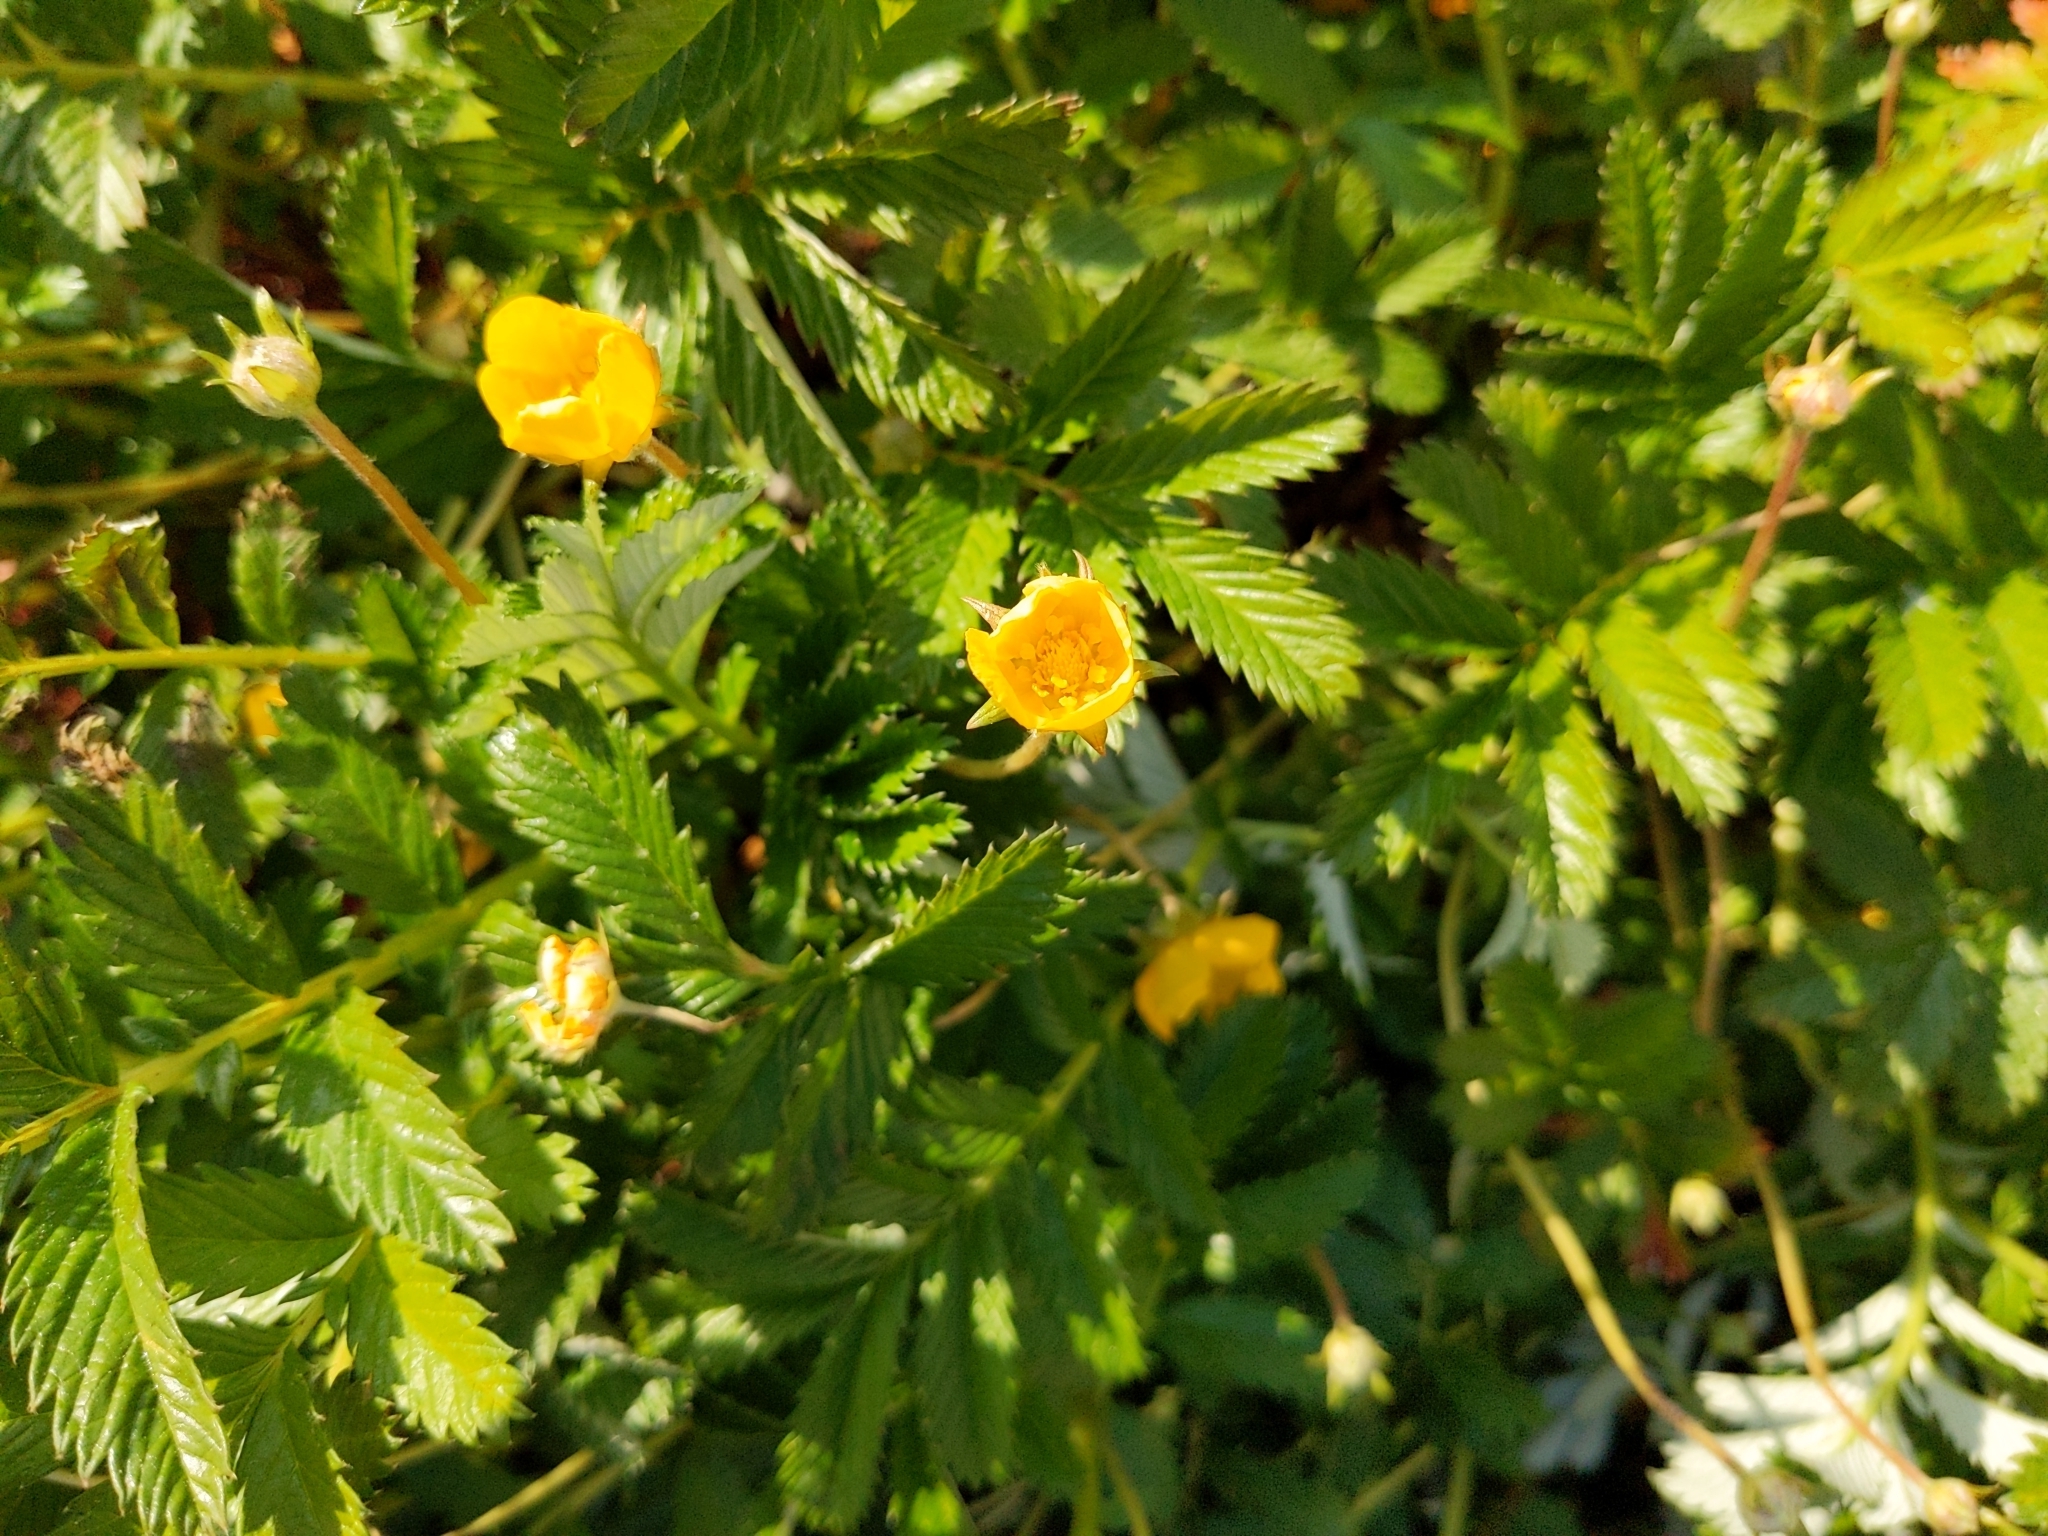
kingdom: Plantae
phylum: Tracheophyta
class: Magnoliopsida
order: Rosales
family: Rosaceae
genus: Argentina
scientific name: Argentina anserina
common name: Common silverweed
